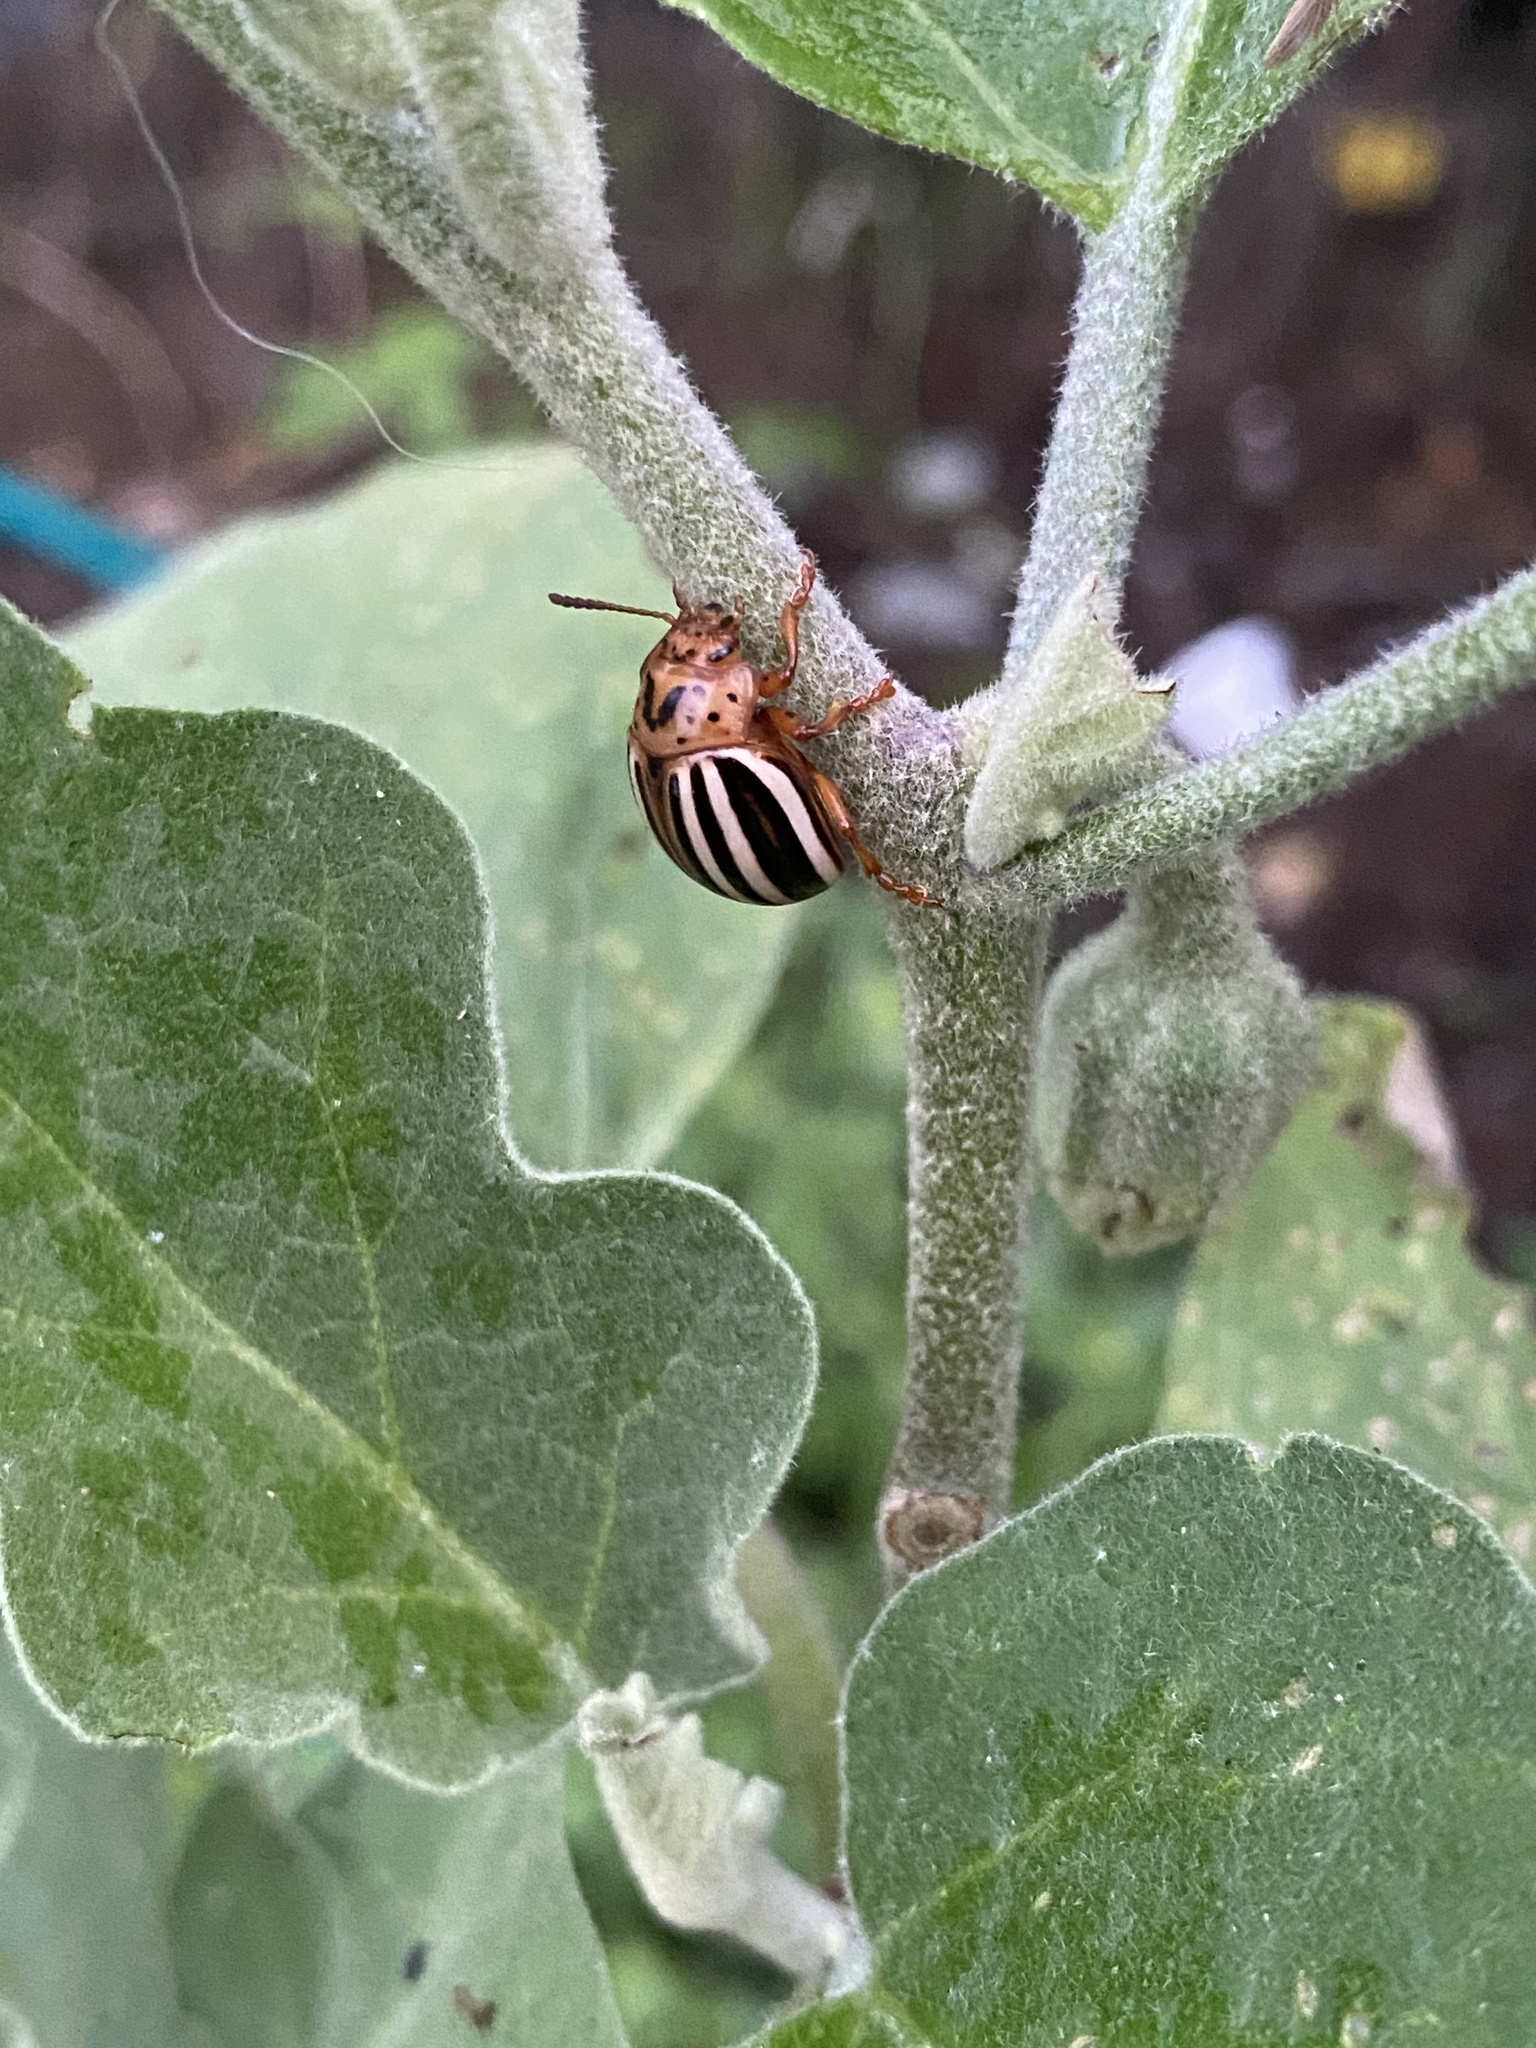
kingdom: Animalia
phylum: Arthropoda
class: Insecta
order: Coleoptera
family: Chrysomelidae
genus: Leptinotarsa
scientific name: Leptinotarsa juncta
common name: False potato beetle
